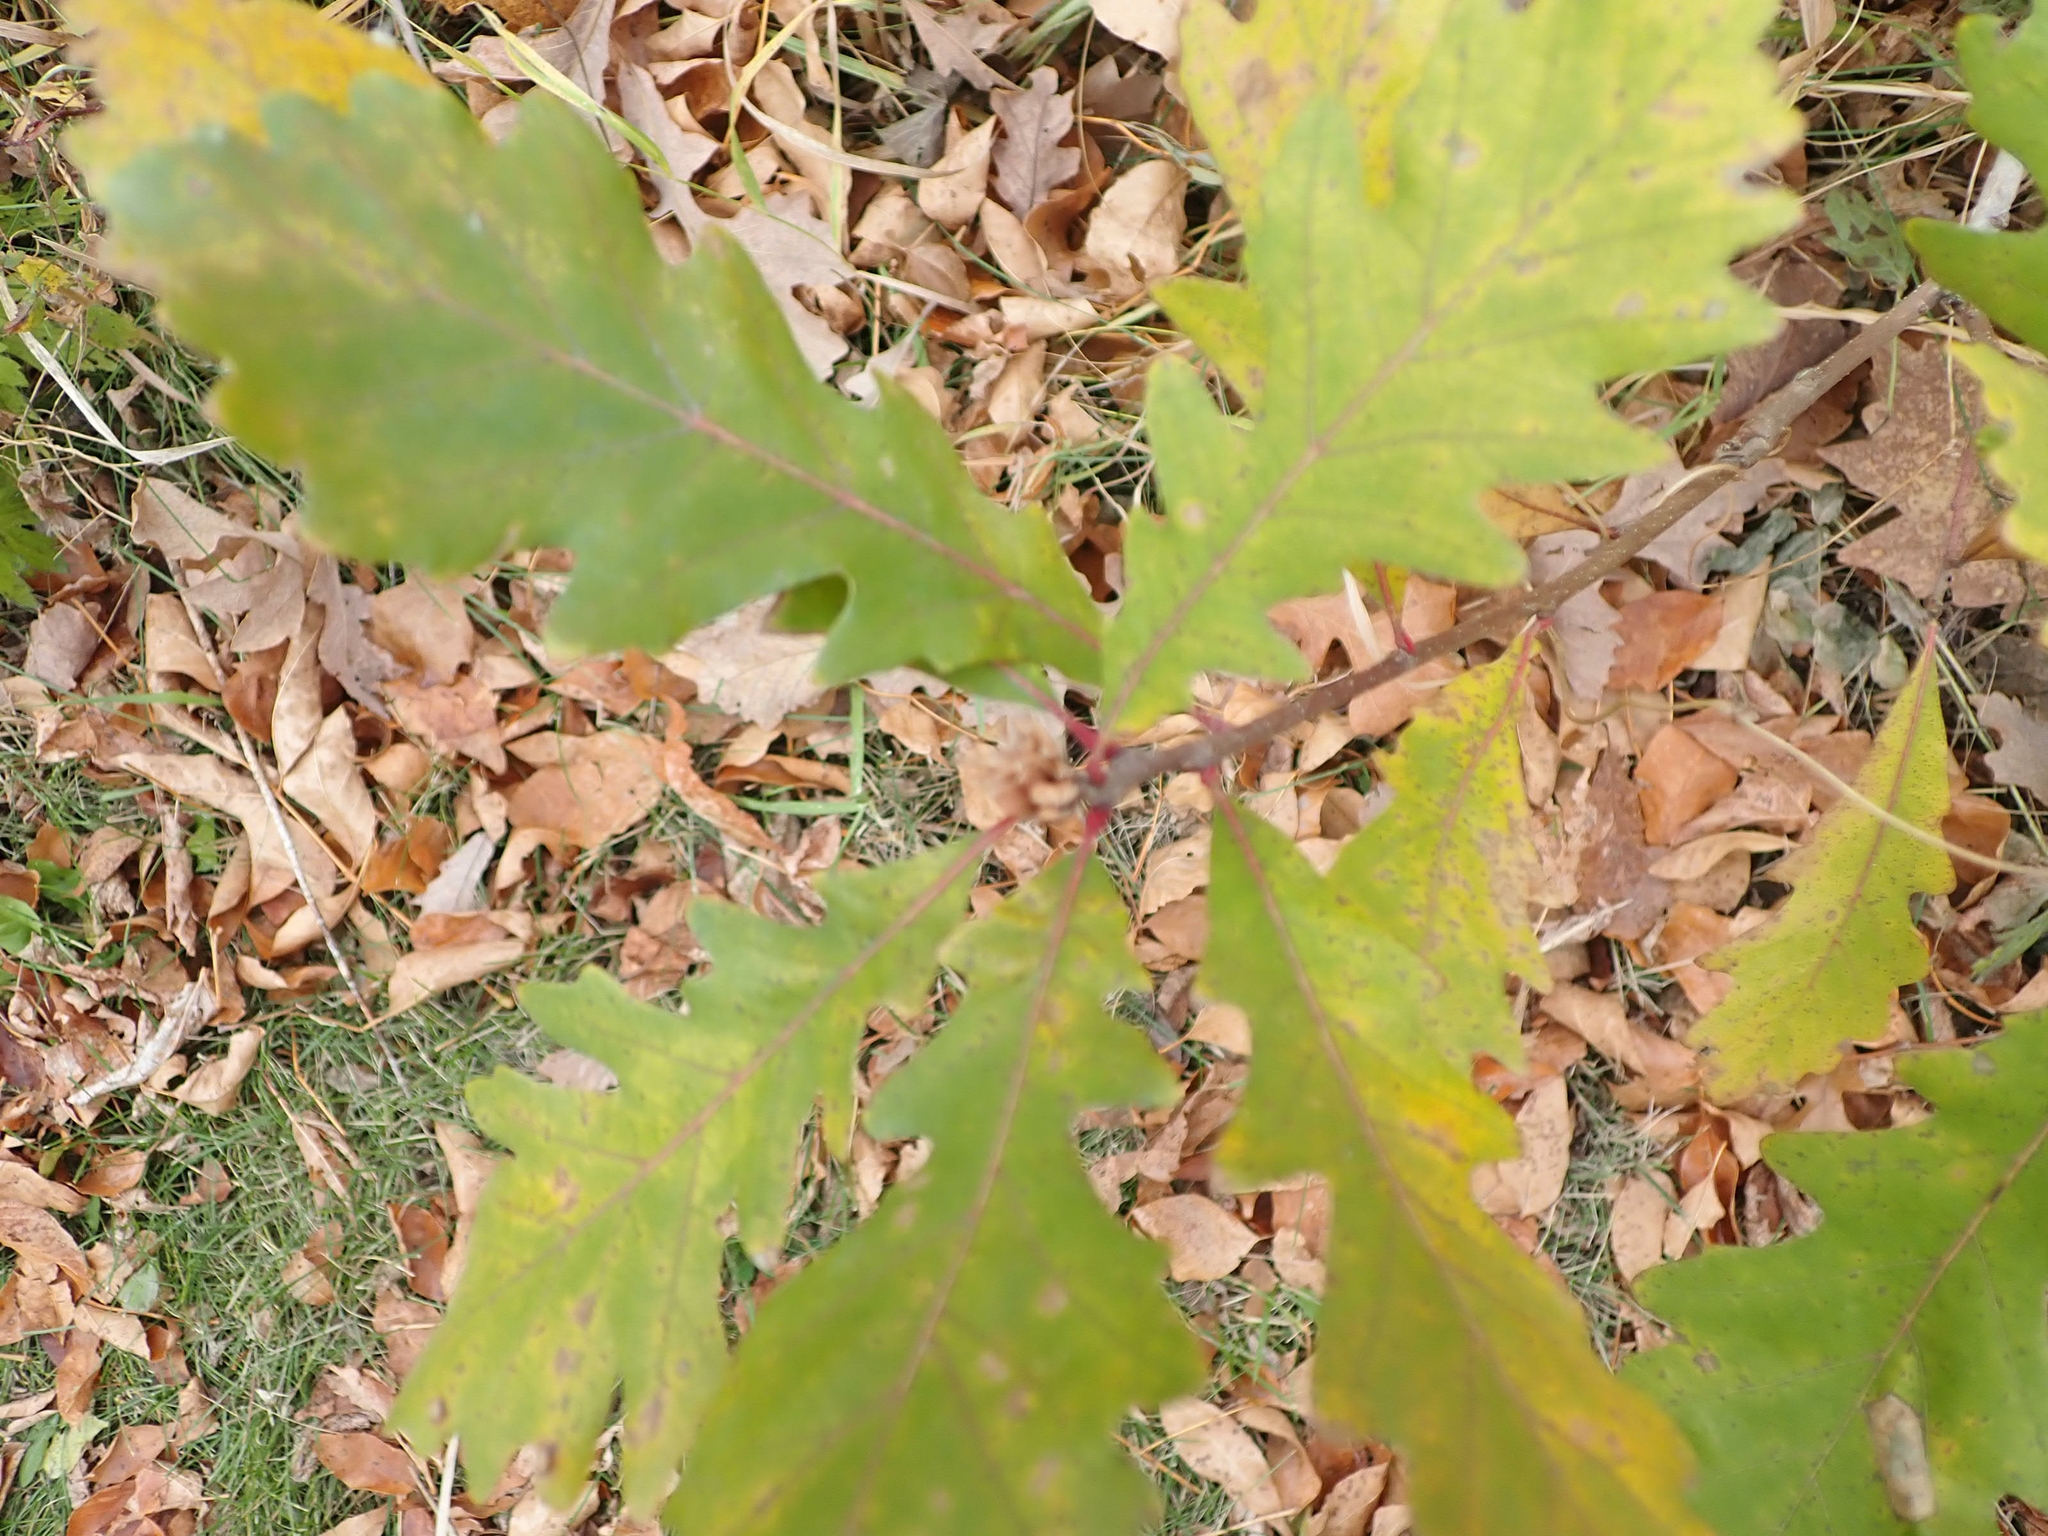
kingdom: Plantae
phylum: Tracheophyta
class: Magnoliopsida
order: Fagales
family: Fagaceae
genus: Quercus
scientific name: Quercus macrocarpa
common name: Bur oak
